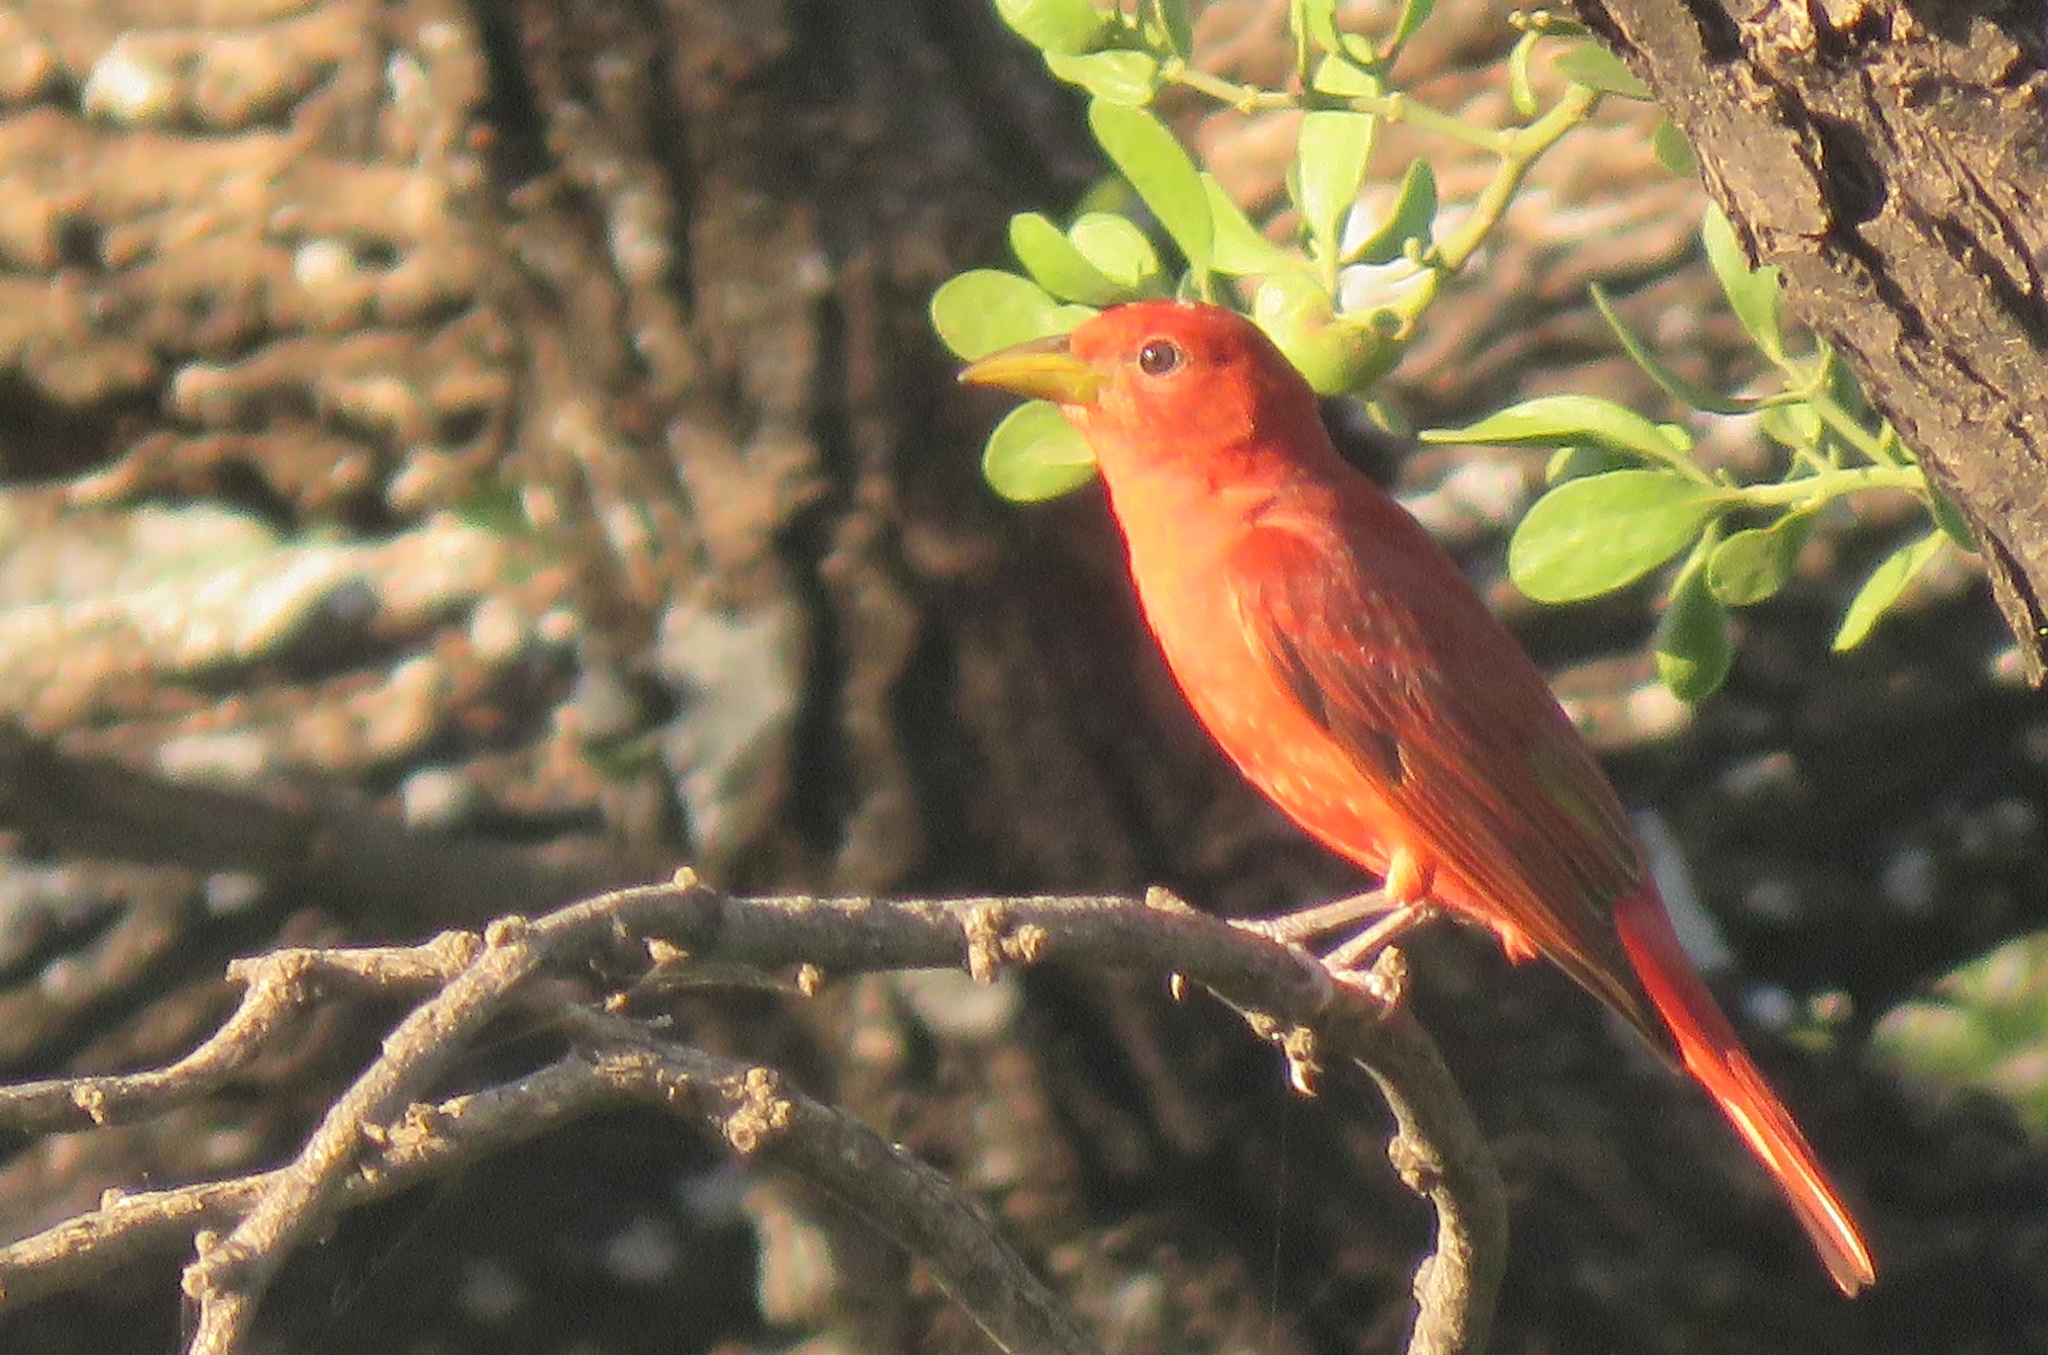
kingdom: Animalia
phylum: Chordata
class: Aves
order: Passeriformes
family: Cardinalidae
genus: Piranga
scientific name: Piranga rubra
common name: Summer tanager
